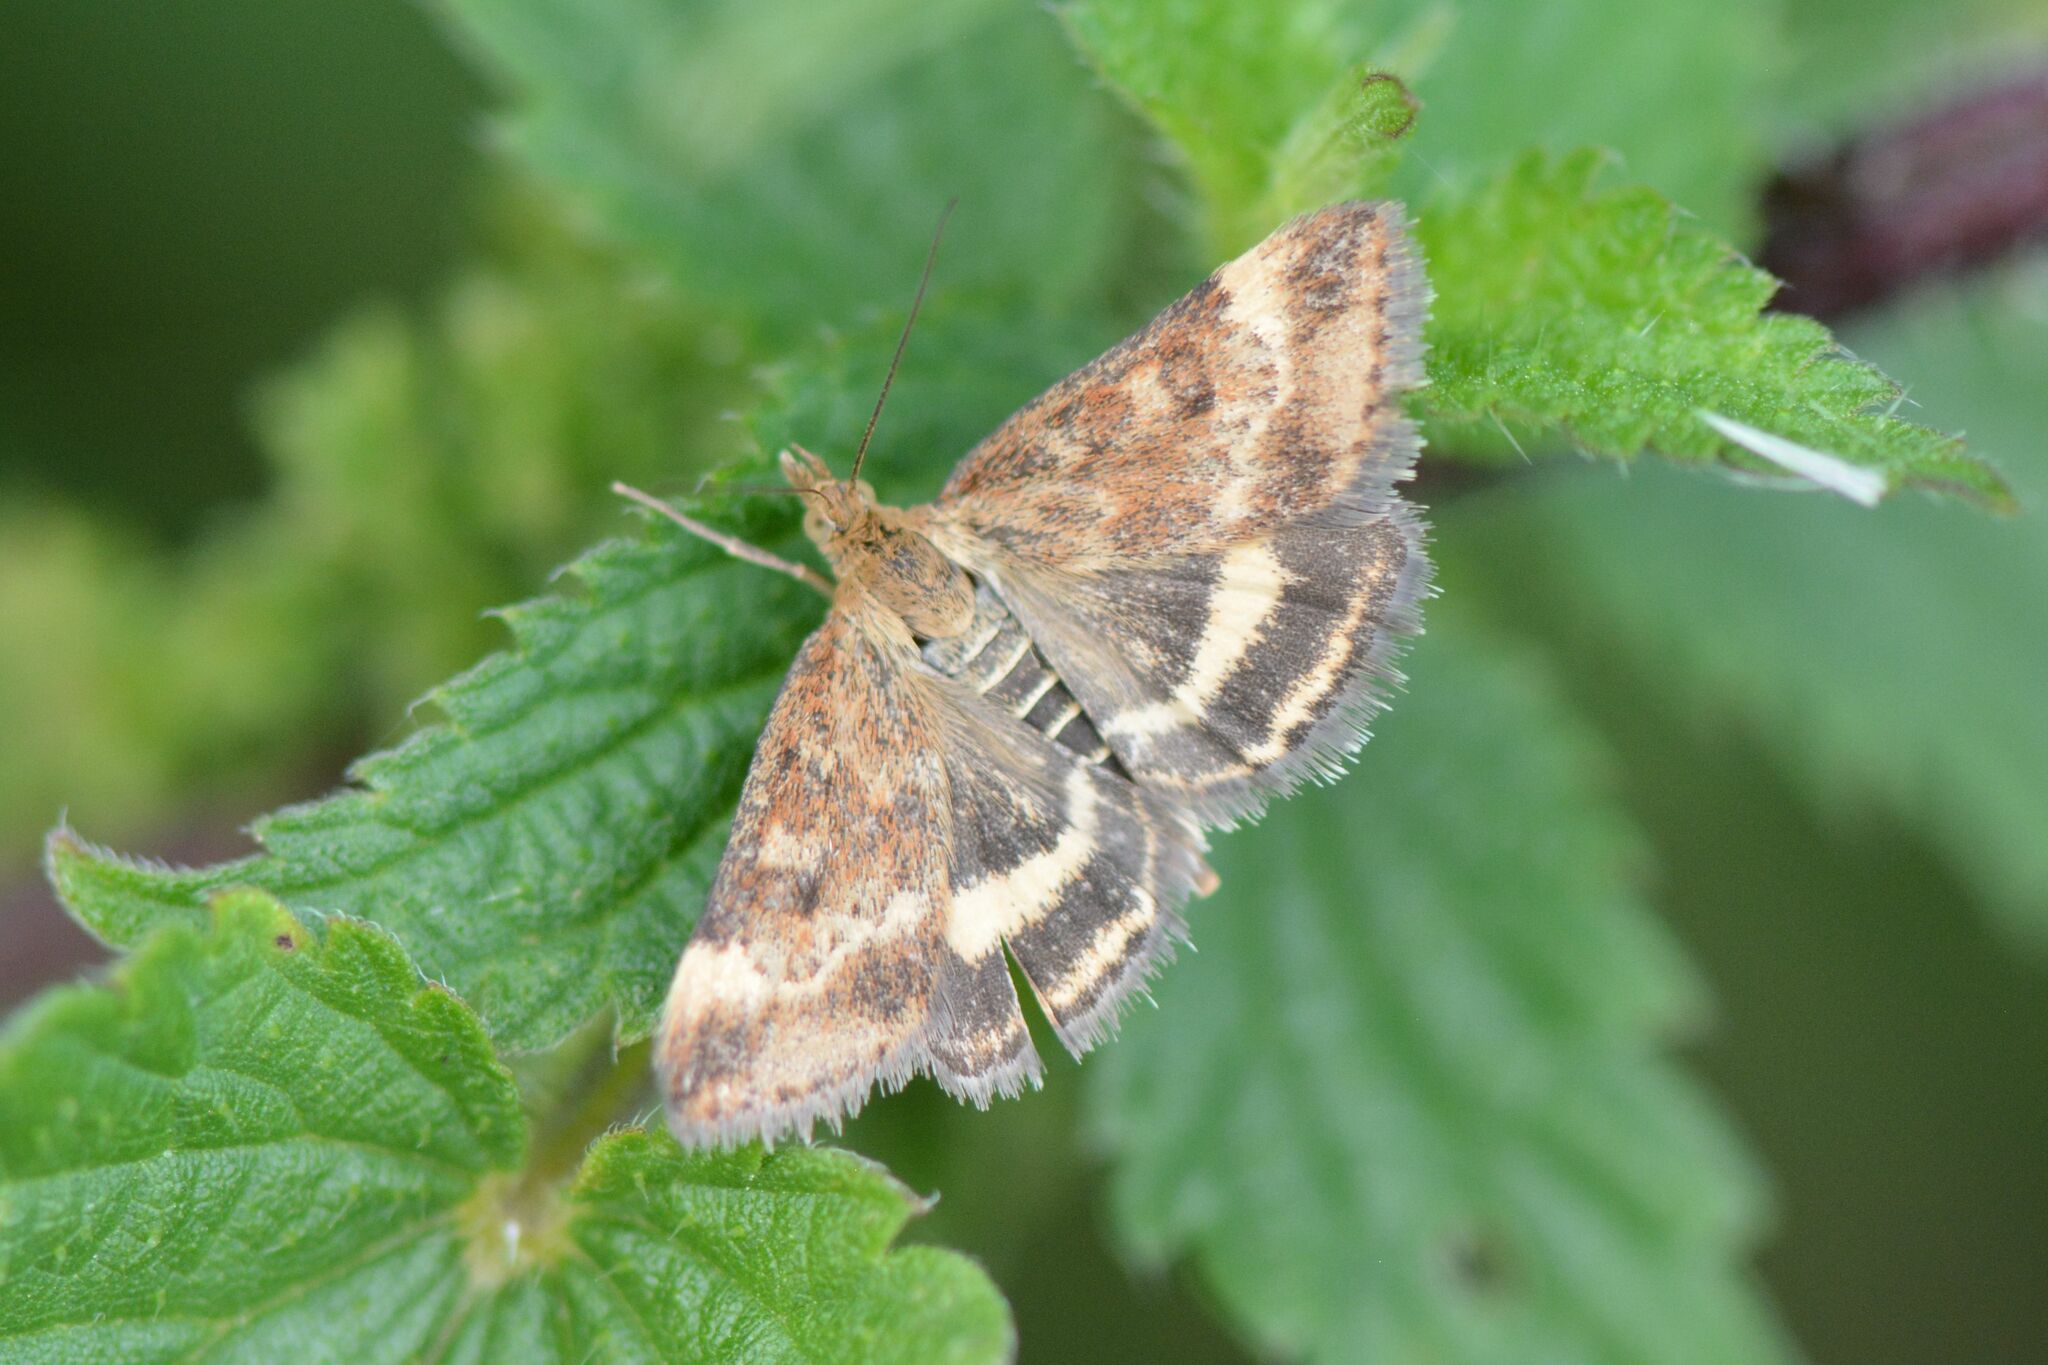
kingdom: Animalia
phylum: Arthropoda
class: Insecta
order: Lepidoptera
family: Crambidae
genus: Pyrausta
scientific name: Pyrausta despicata
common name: Straw-barred pearl
